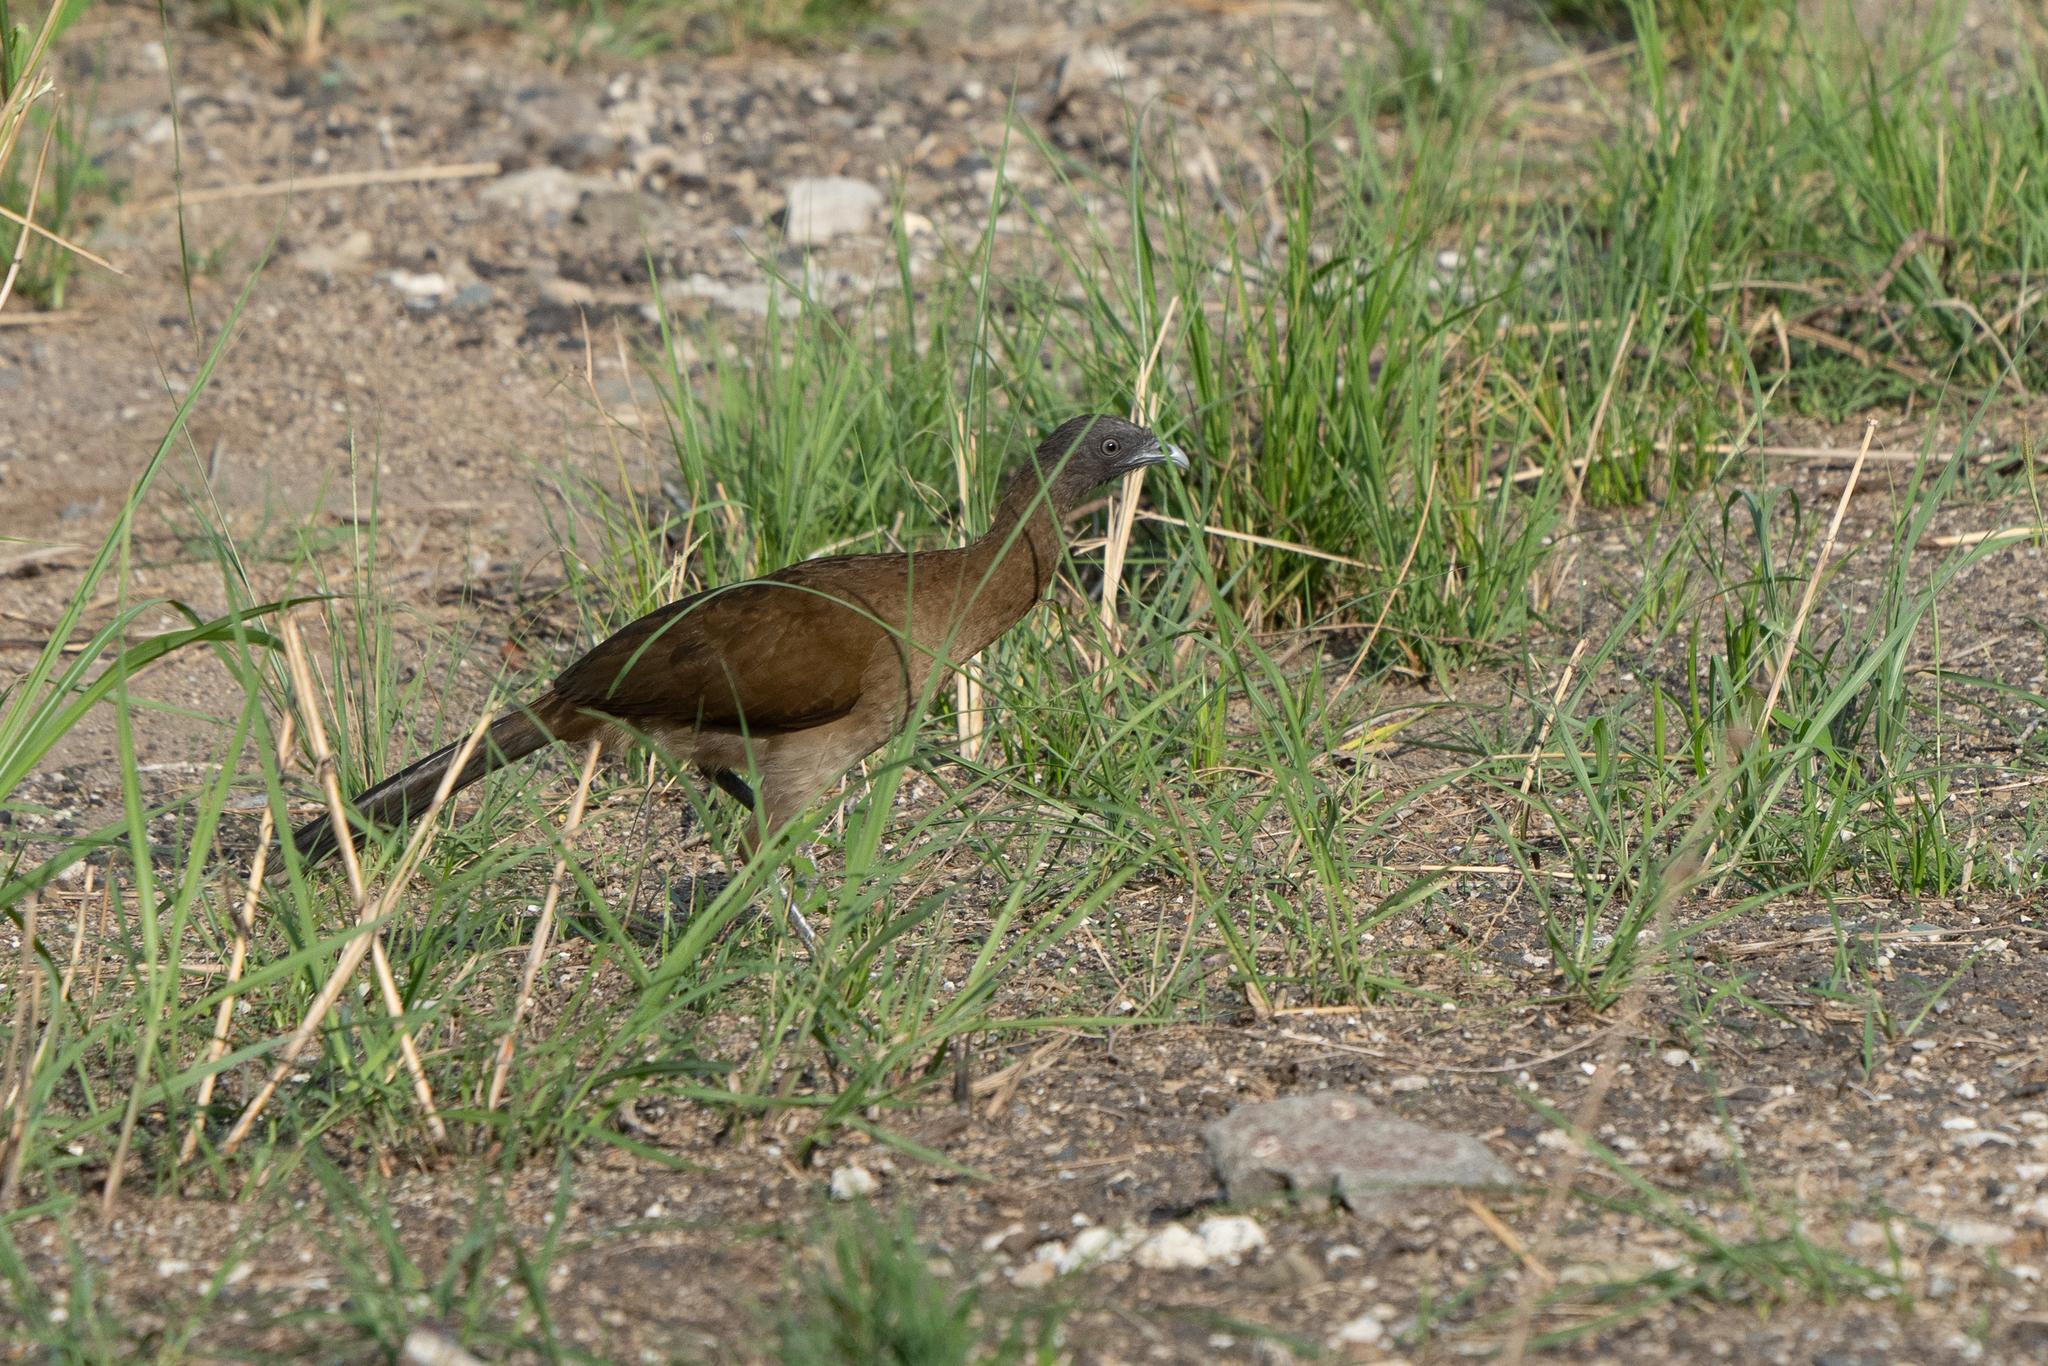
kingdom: Animalia
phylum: Chordata
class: Aves
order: Galliformes
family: Cracidae
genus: Ortalis
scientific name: Ortalis cinereiceps
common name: Grey-headed chachalaca
